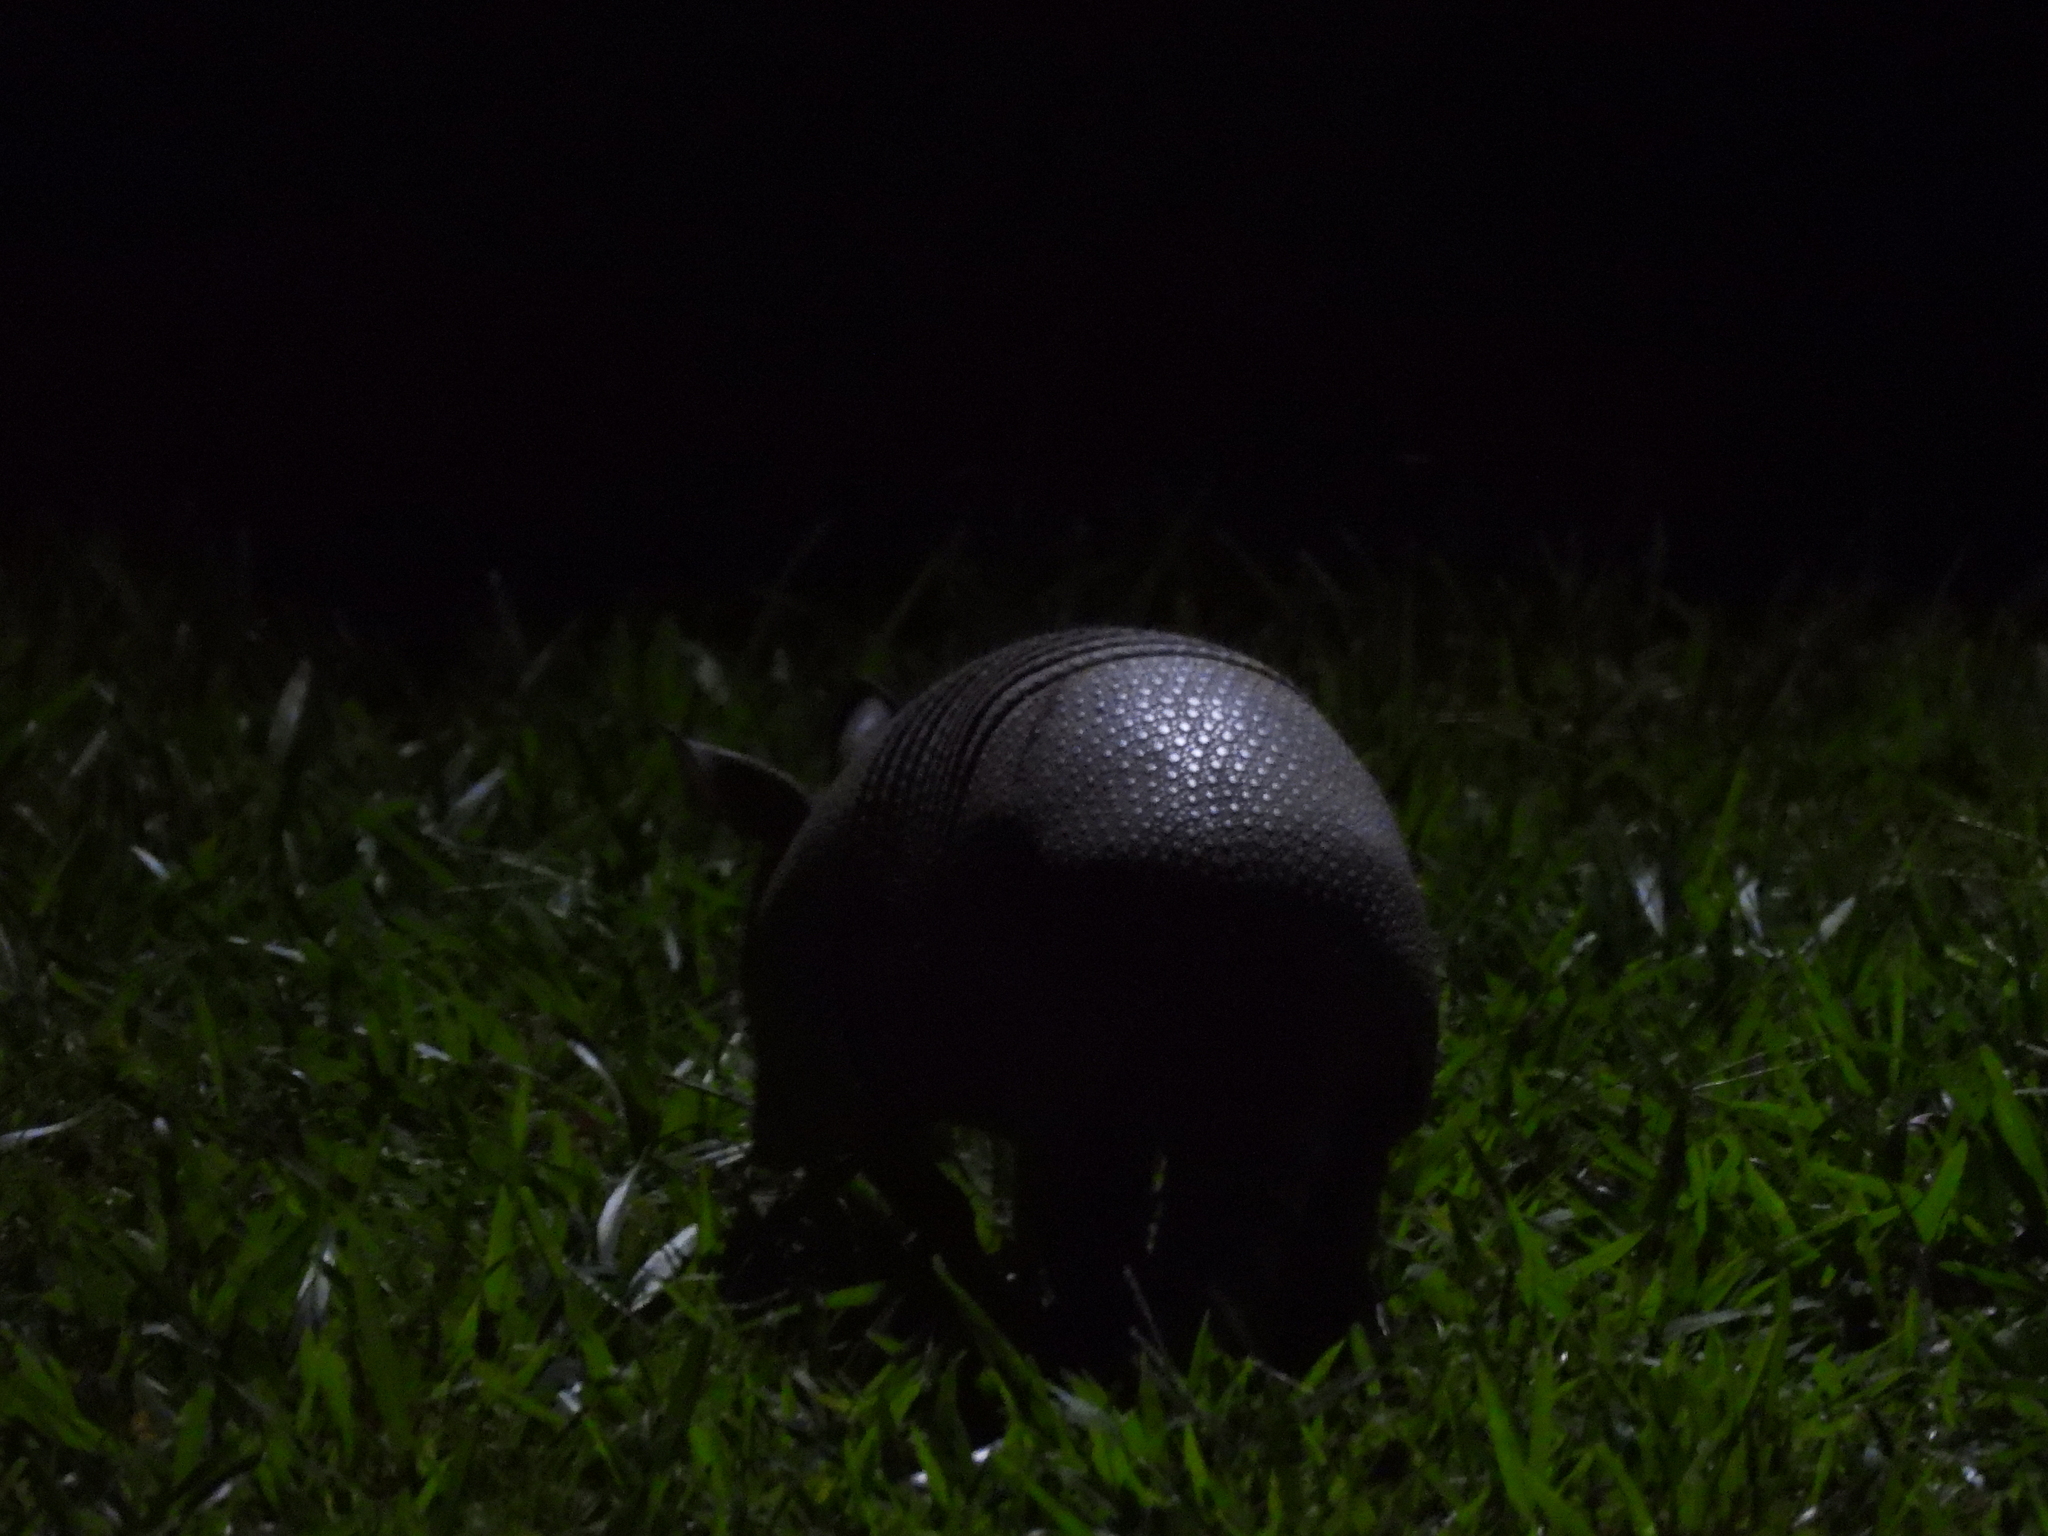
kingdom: Animalia
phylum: Chordata
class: Mammalia
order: Cingulata
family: Dasypodidae
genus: Dasypus
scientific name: Dasypus novemcinctus
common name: Nine-banded armadillo
